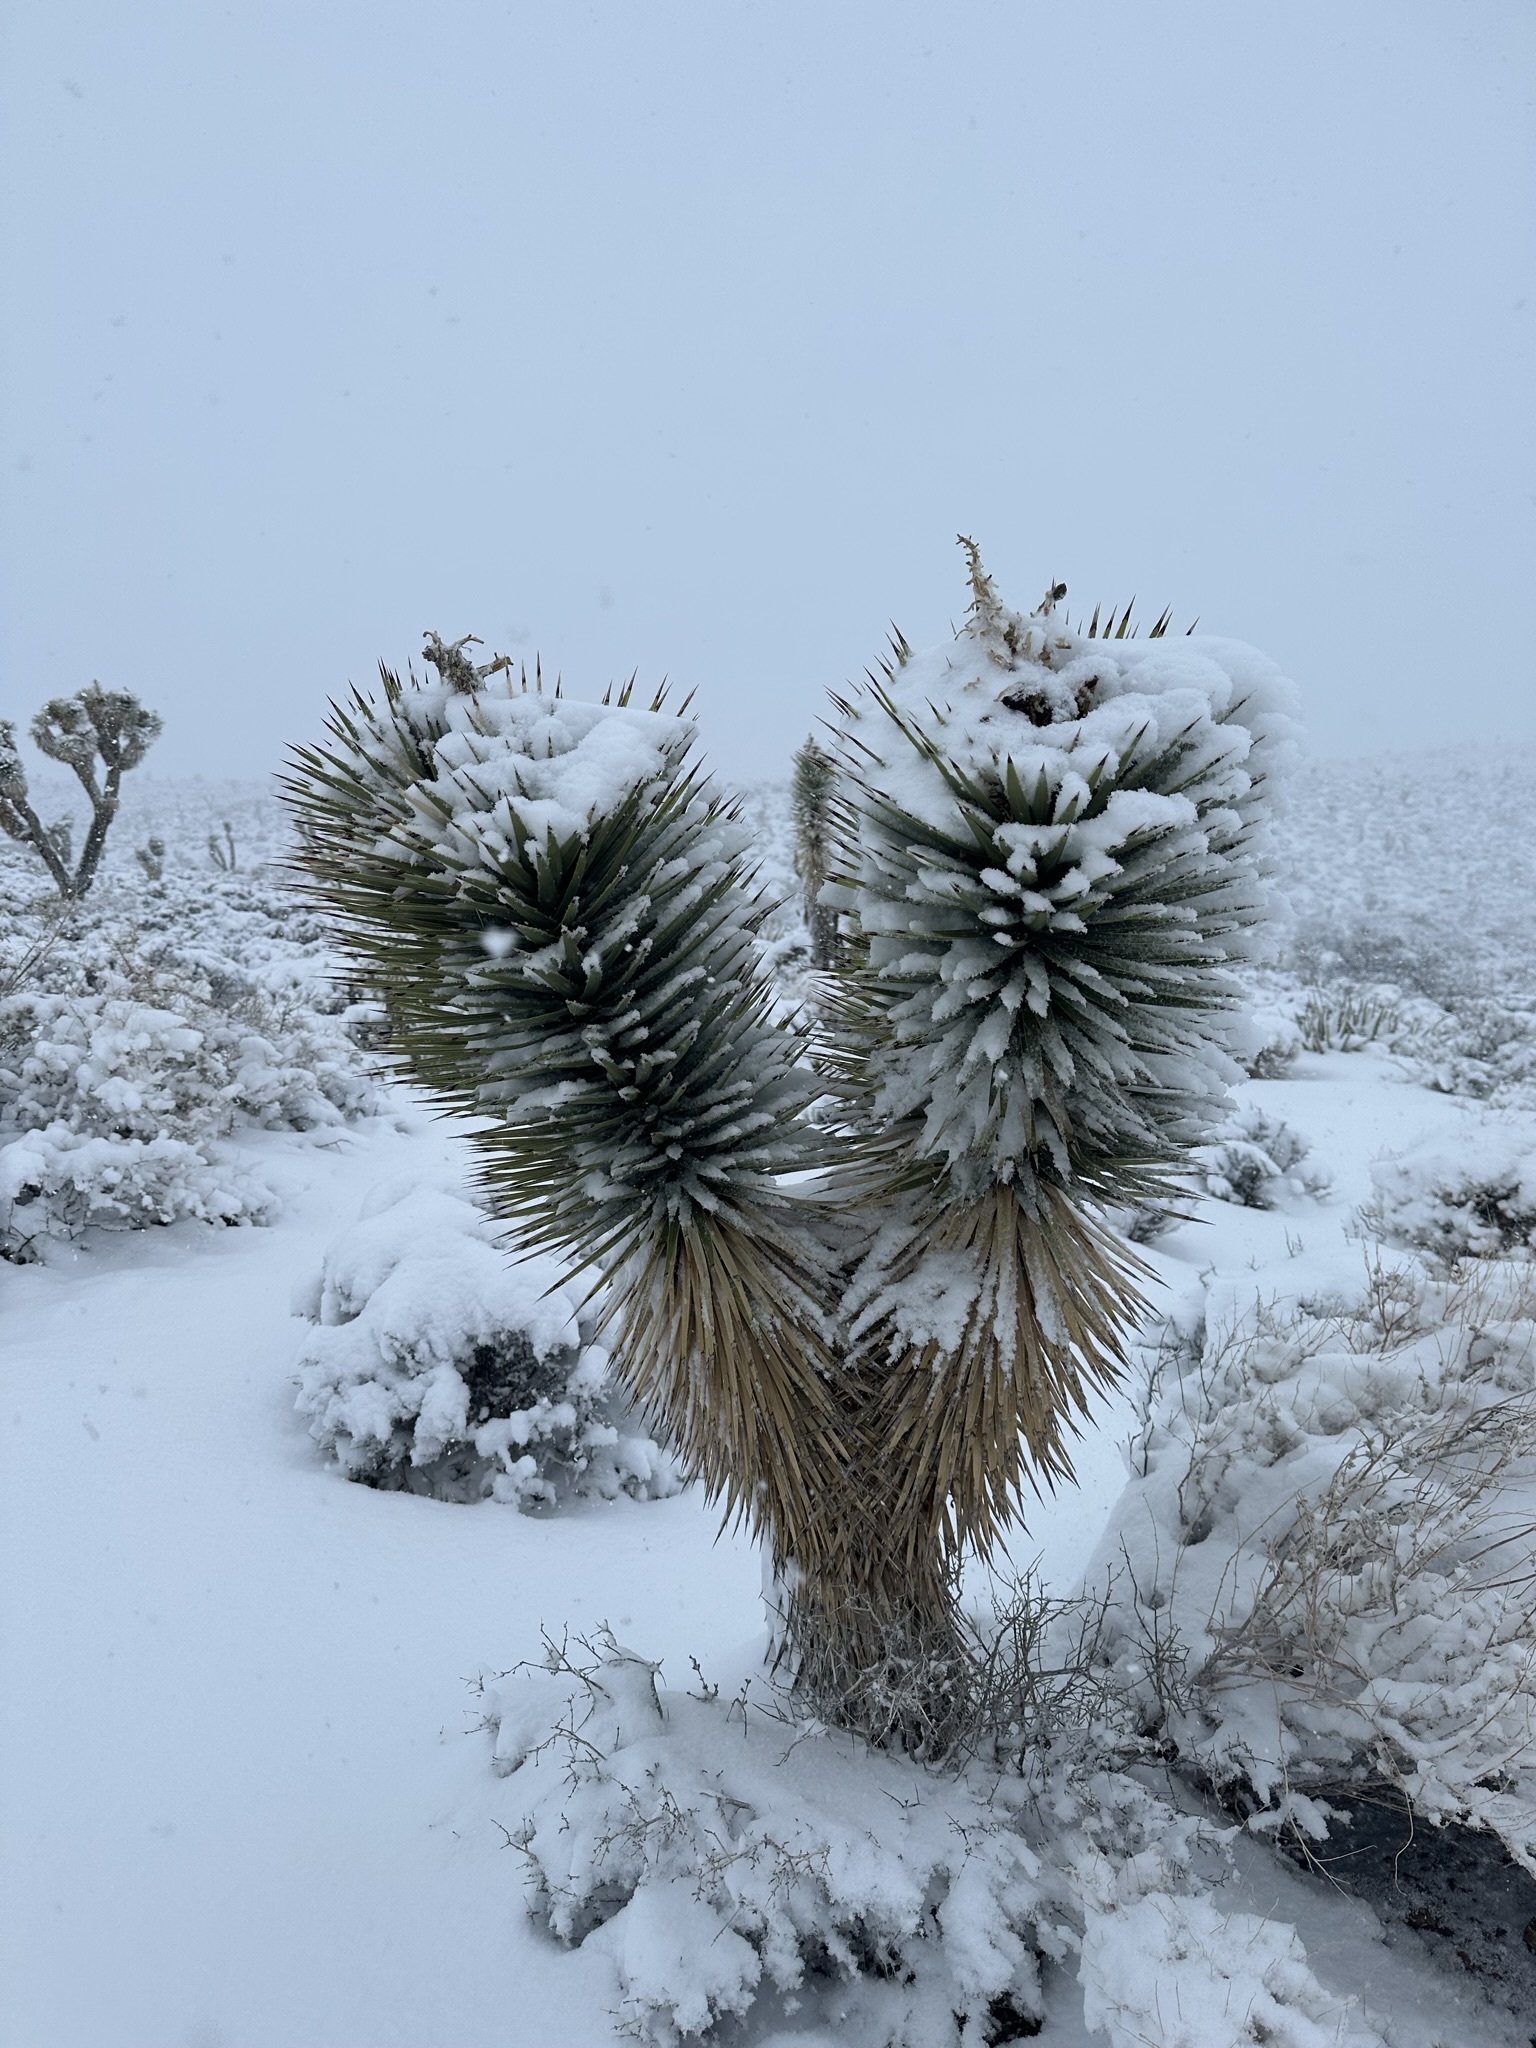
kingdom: Plantae
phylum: Tracheophyta
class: Liliopsida
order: Asparagales
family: Asparagaceae
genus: Yucca
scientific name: Yucca brevifolia
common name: Joshua tree
